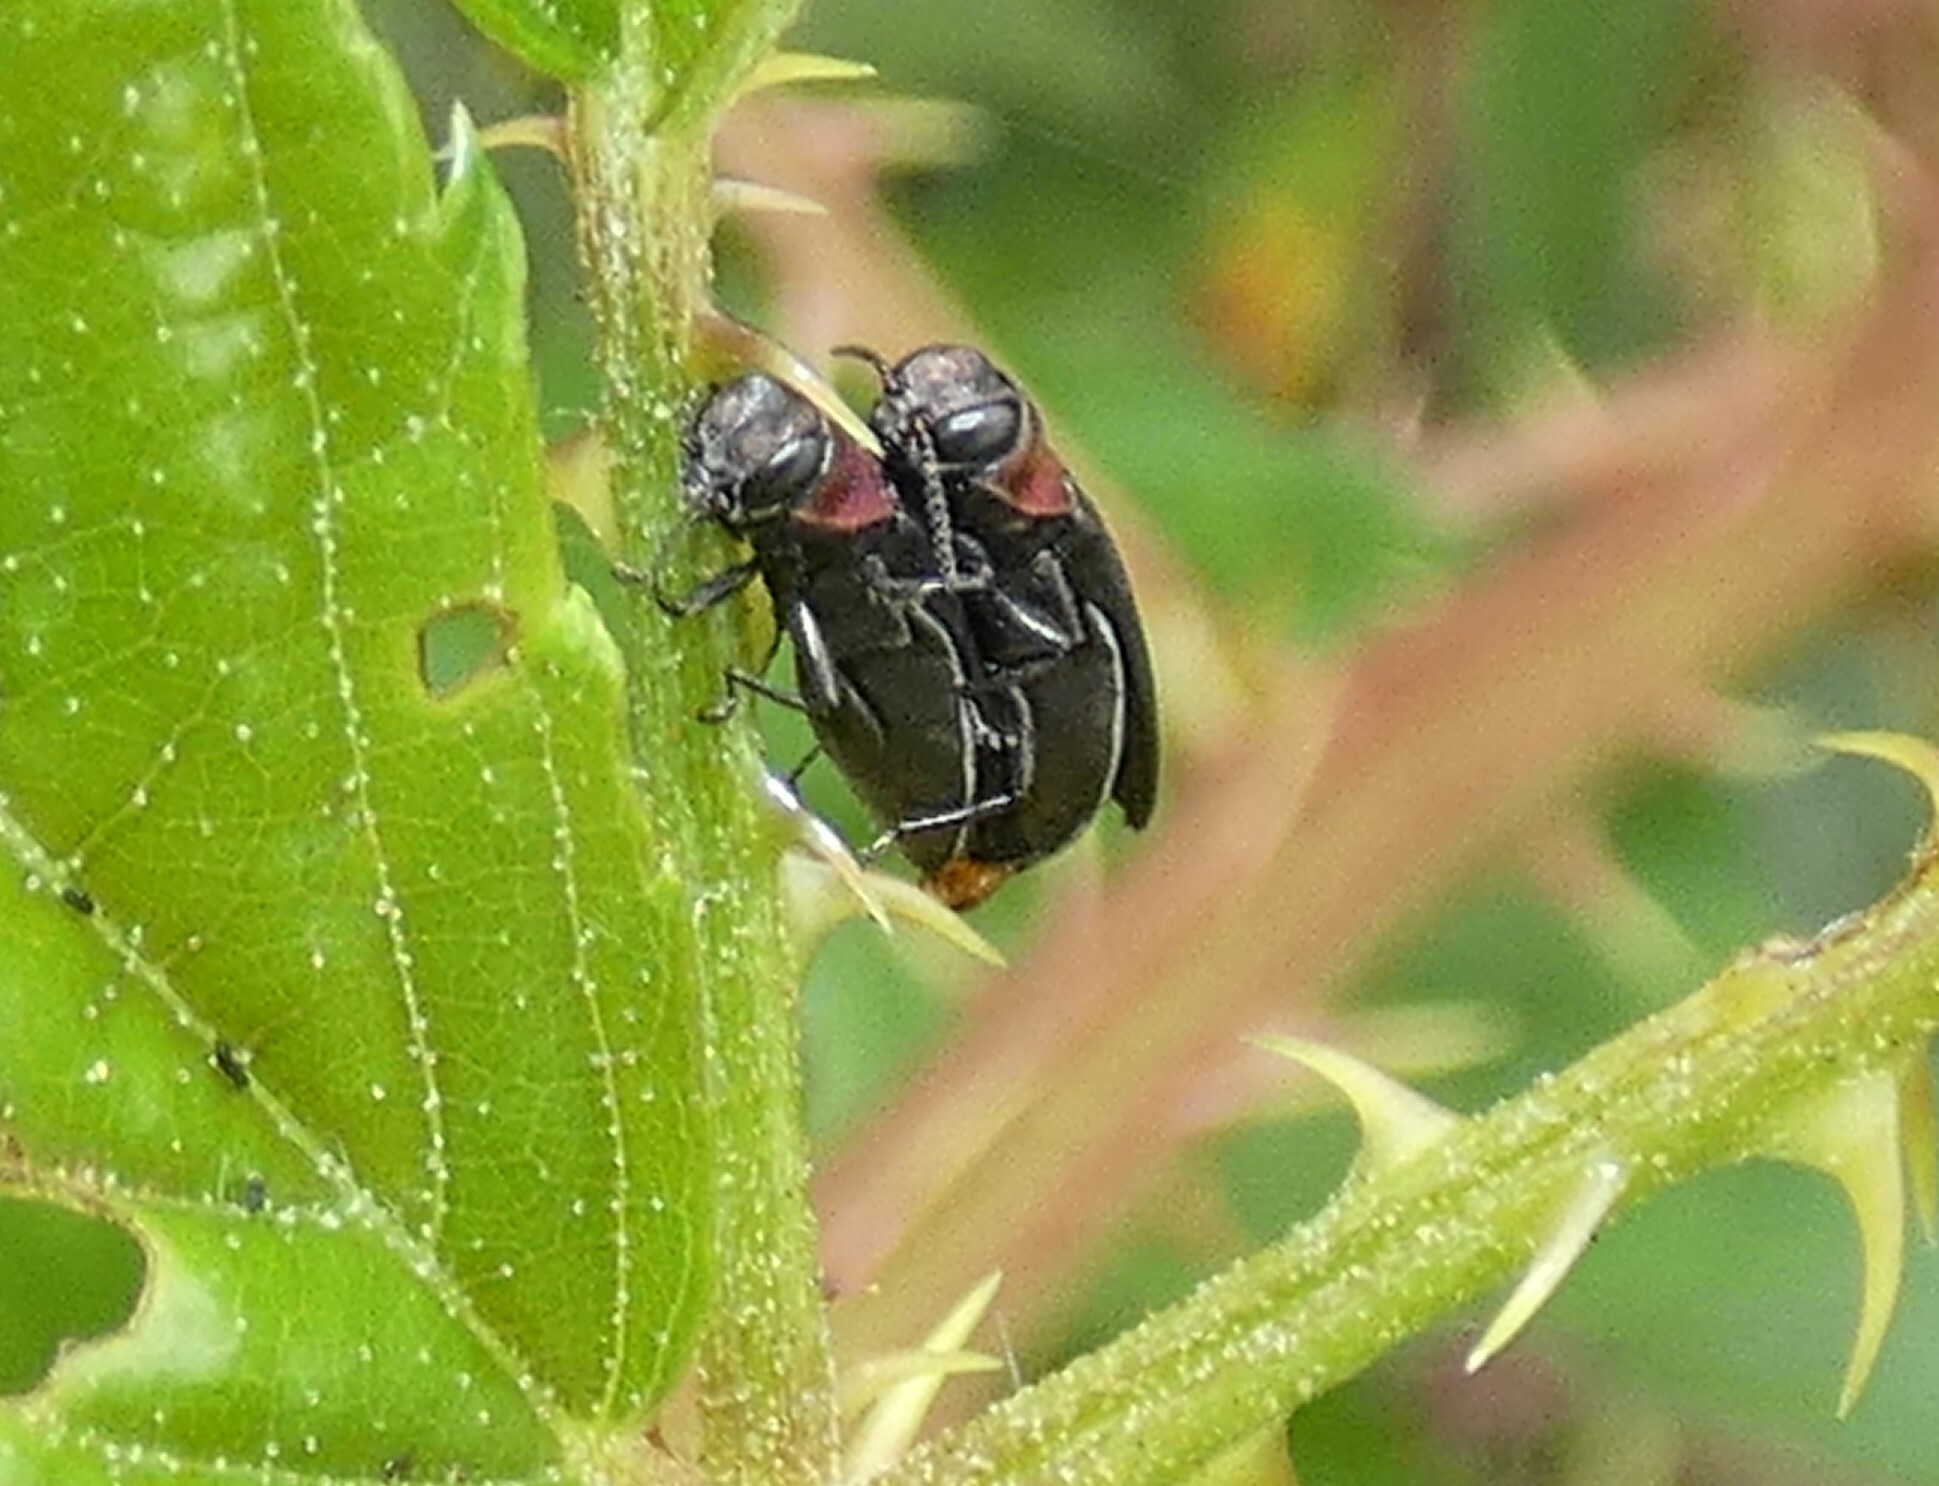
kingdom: Animalia
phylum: Arthropoda
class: Insecta
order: Coleoptera
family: Buprestidae
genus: Agrilus
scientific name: Agrilus ruficollis
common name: Red-necked cane borer beetle
